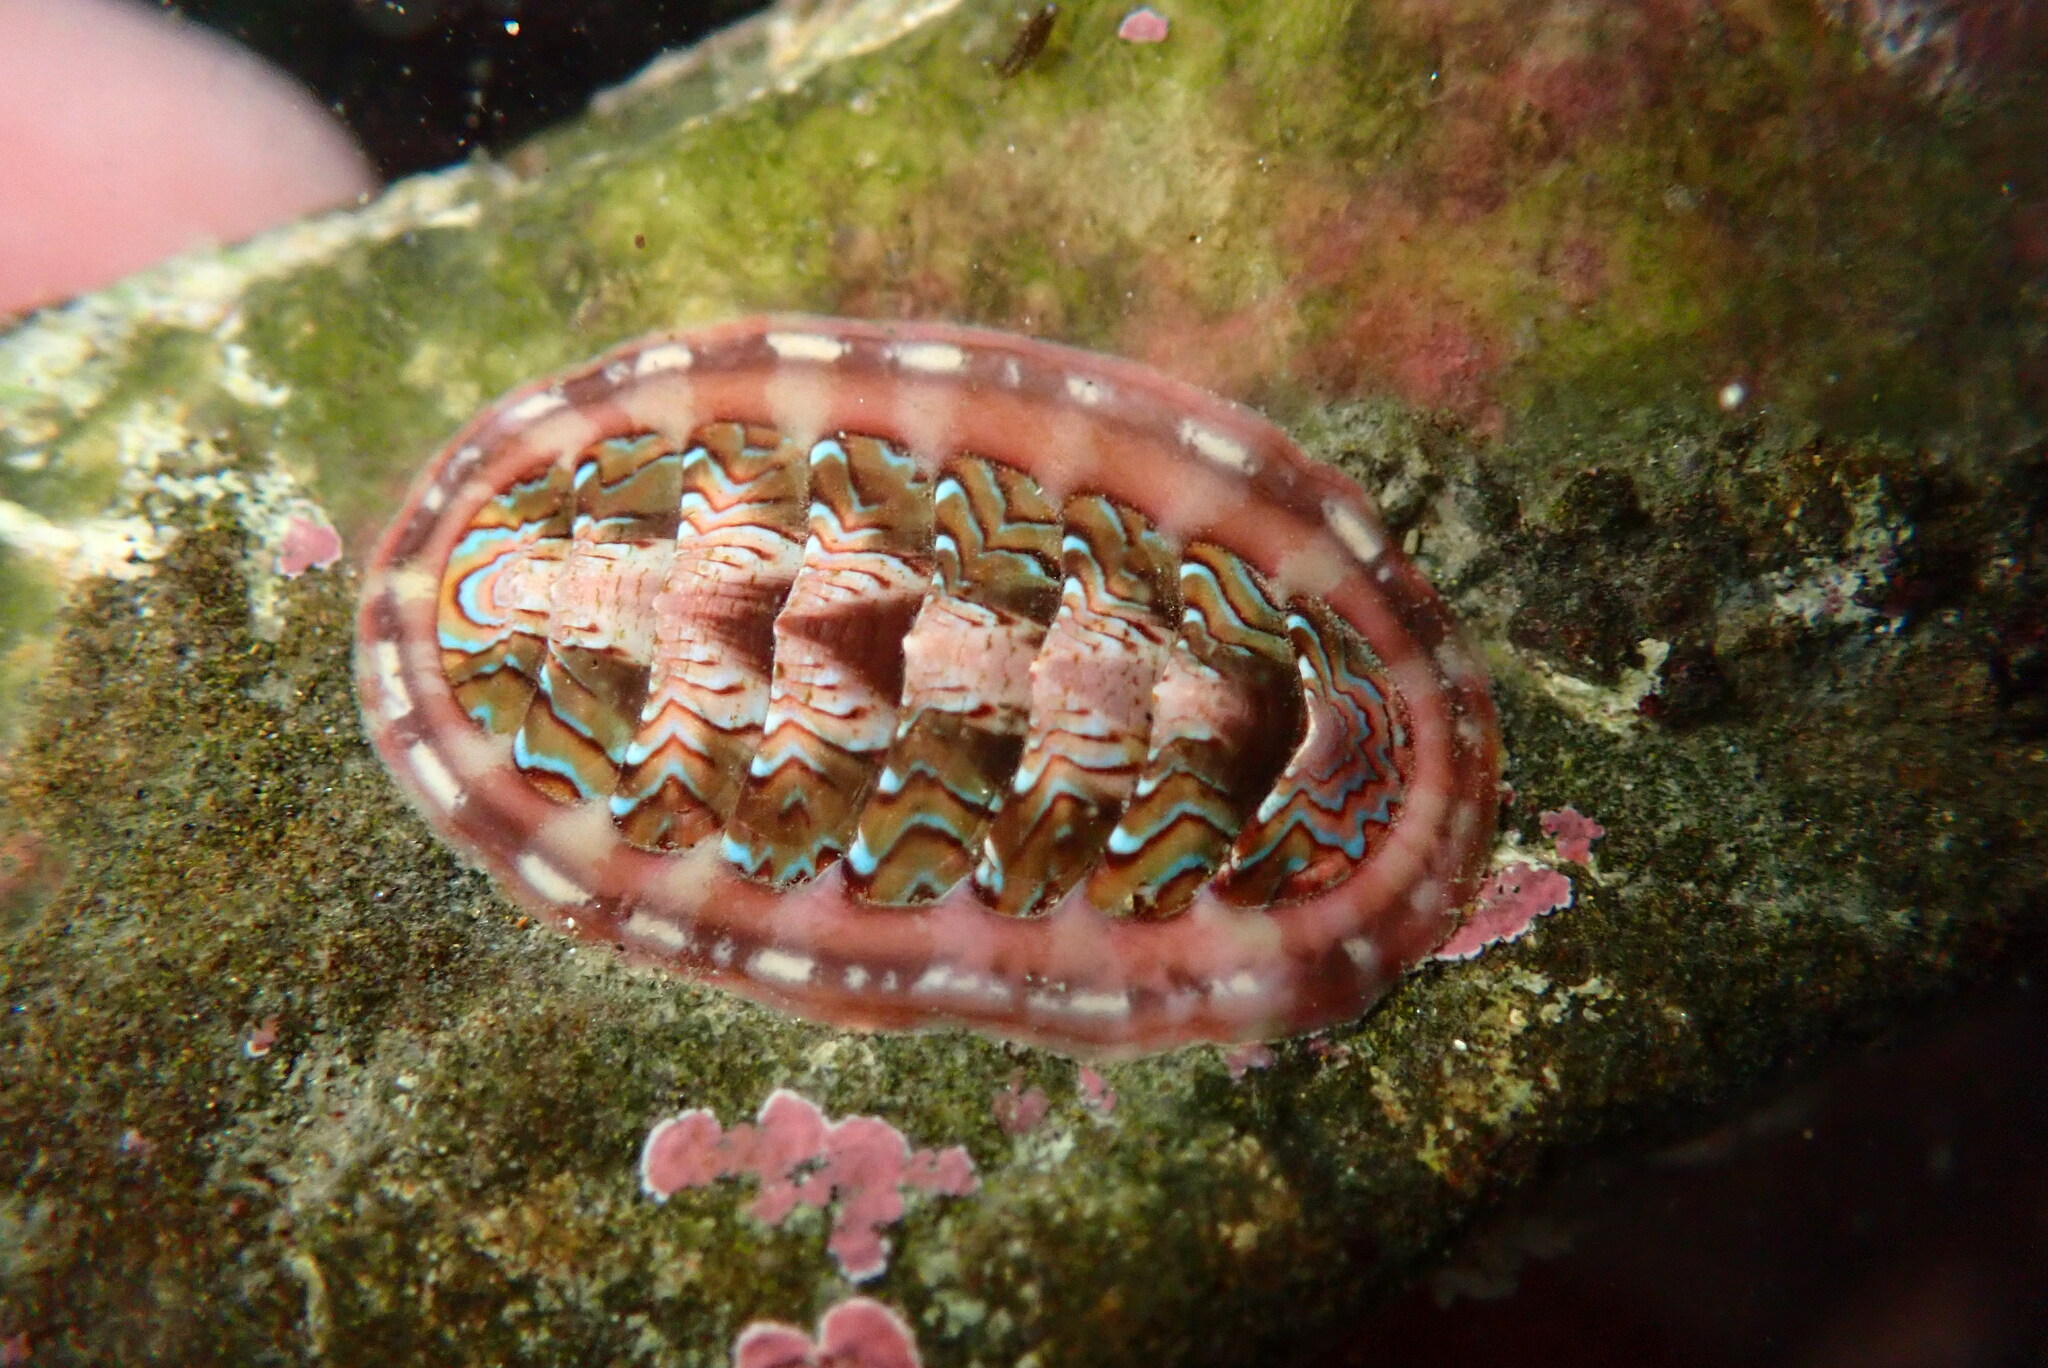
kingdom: Animalia
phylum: Mollusca
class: Polyplacophora
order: Chitonida
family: Tonicellidae
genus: Tonicella
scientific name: Tonicella lokii
